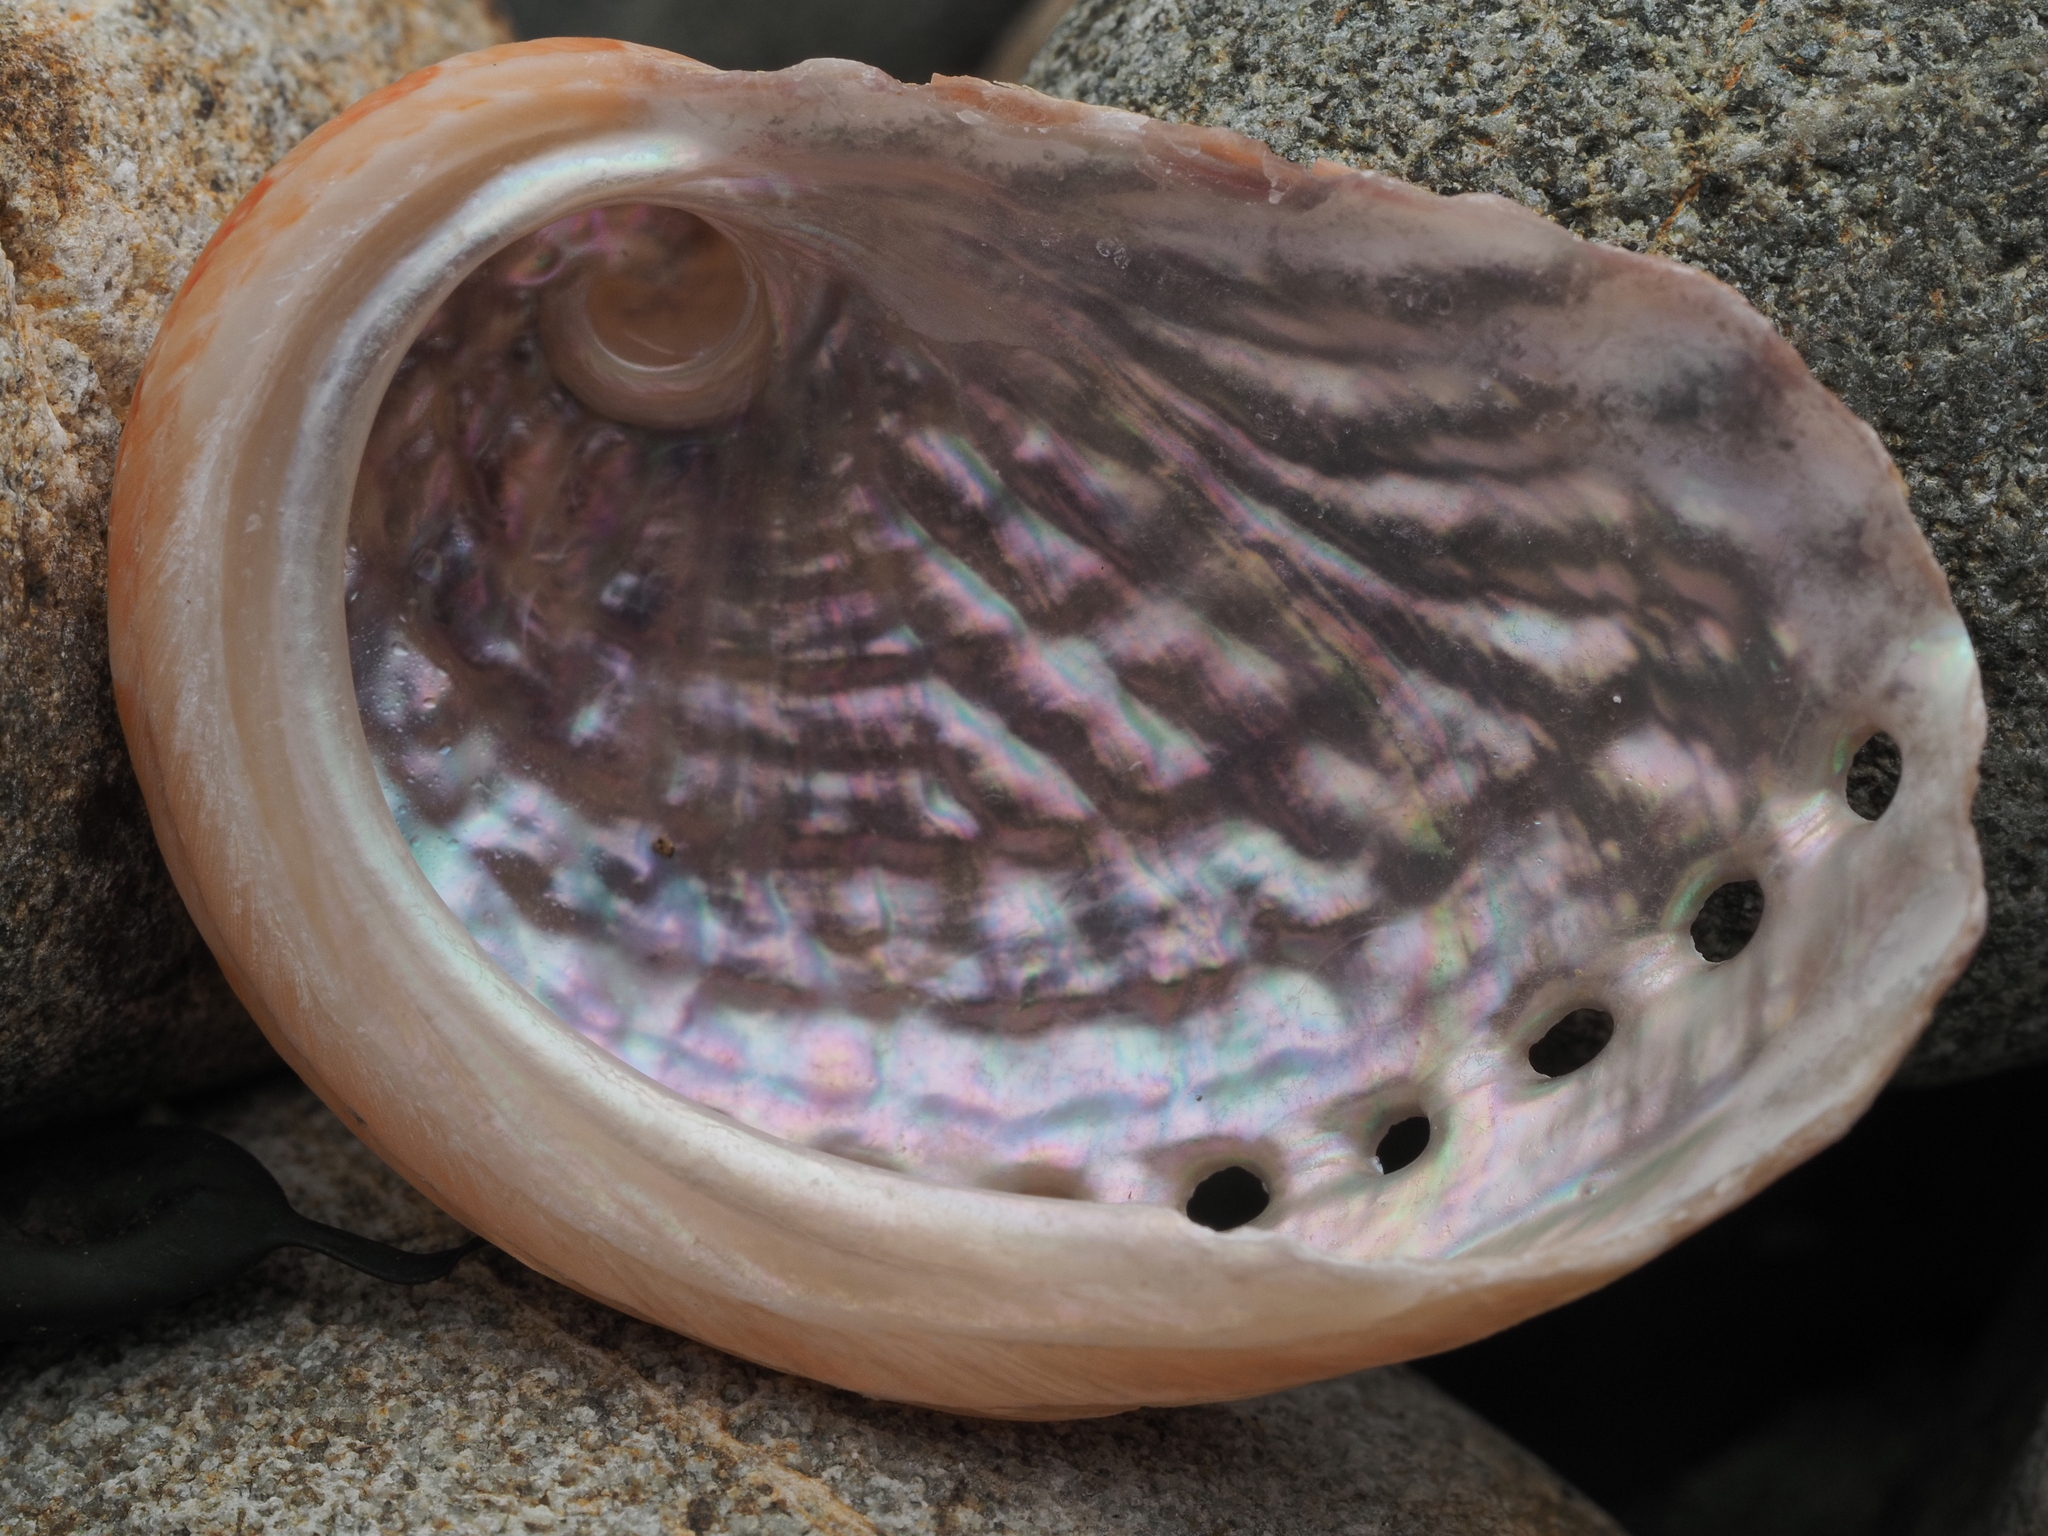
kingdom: Animalia
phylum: Mollusca
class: Gastropoda
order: Lepetellida
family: Haliotidae
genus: Haliotis
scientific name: Haliotis australis
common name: Silver abalone
